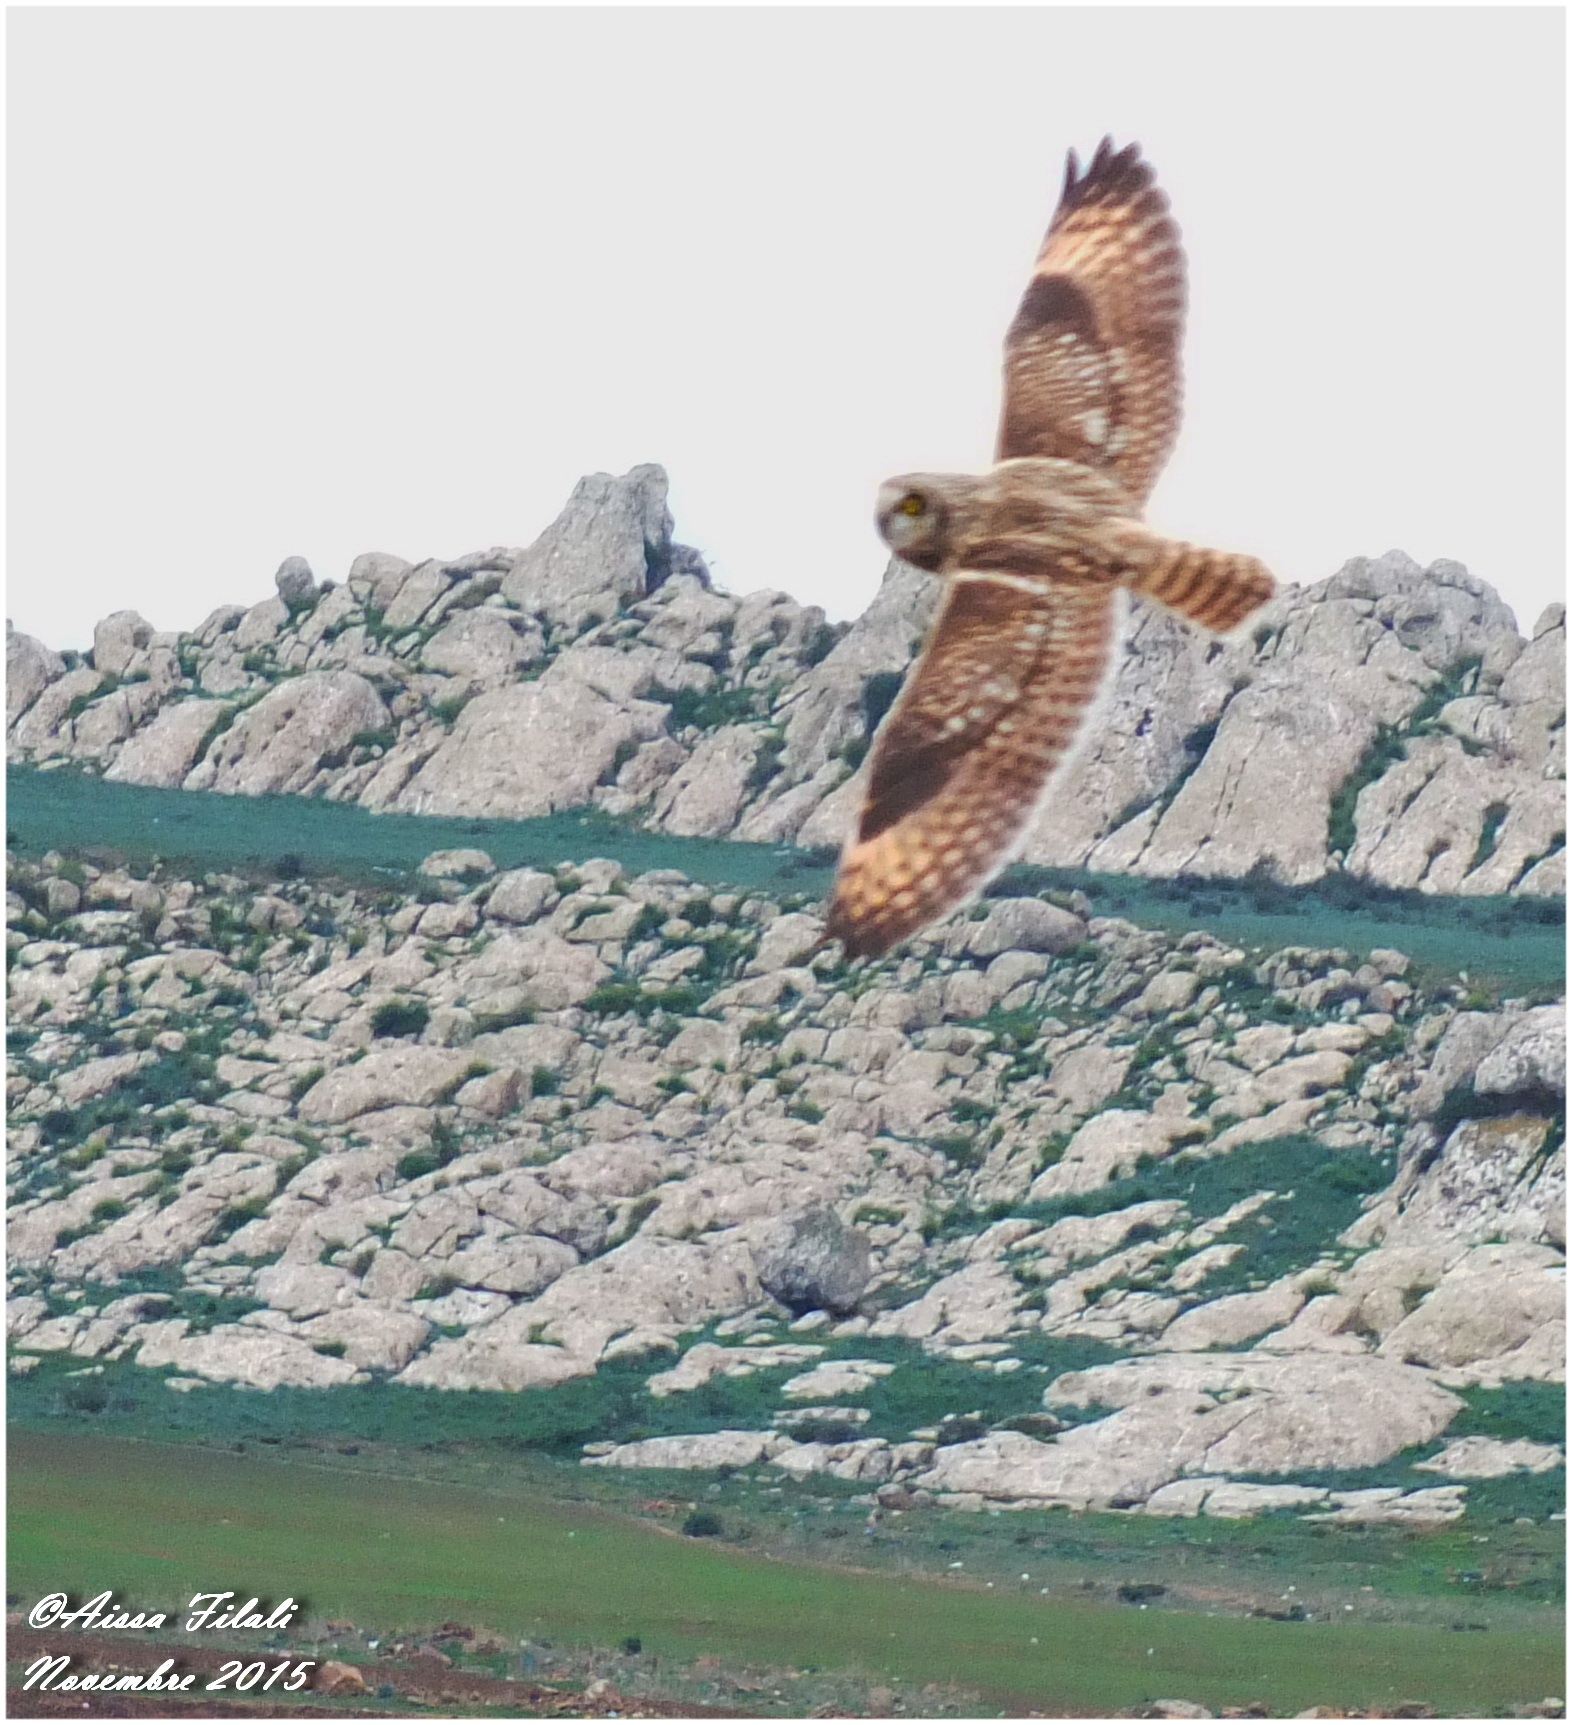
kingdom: Animalia
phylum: Chordata
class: Aves
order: Strigiformes
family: Strigidae
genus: Asio
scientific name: Asio flammeus
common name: Short-eared owl
